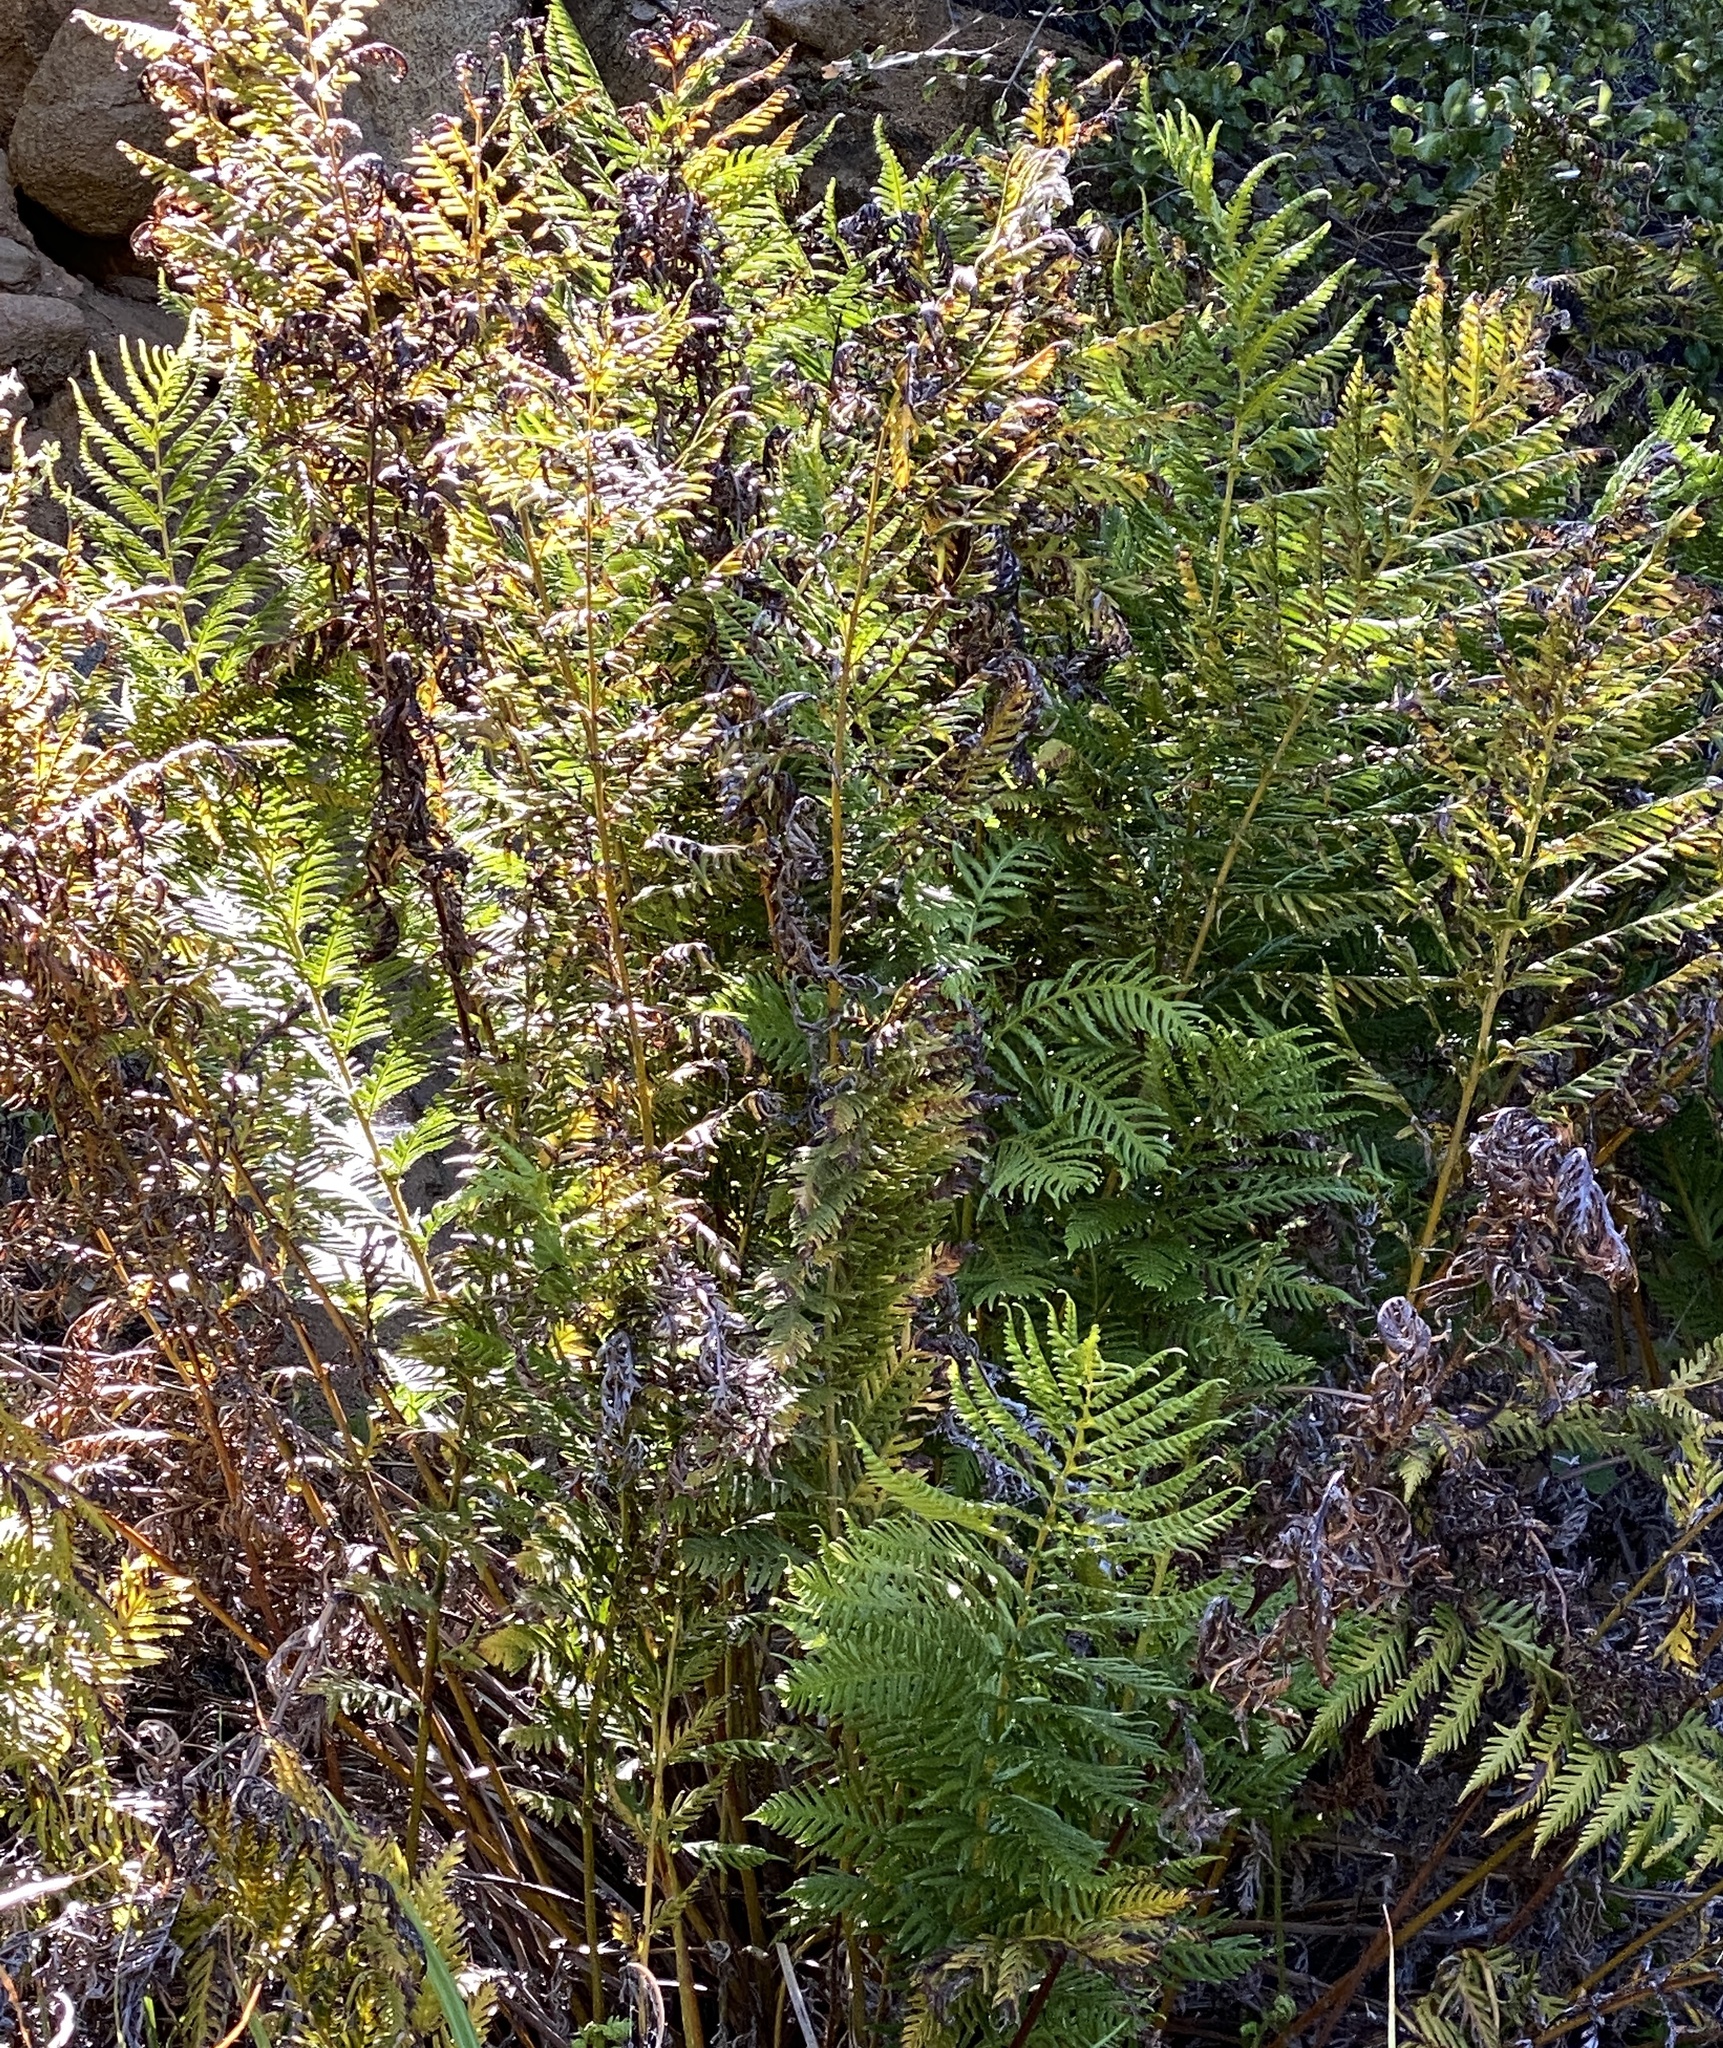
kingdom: Plantae
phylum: Tracheophyta
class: Polypodiopsida
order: Polypodiales
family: Blechnaceae
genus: Woodwardia
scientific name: Woodwardia fimbriata
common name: Giant chain fern
